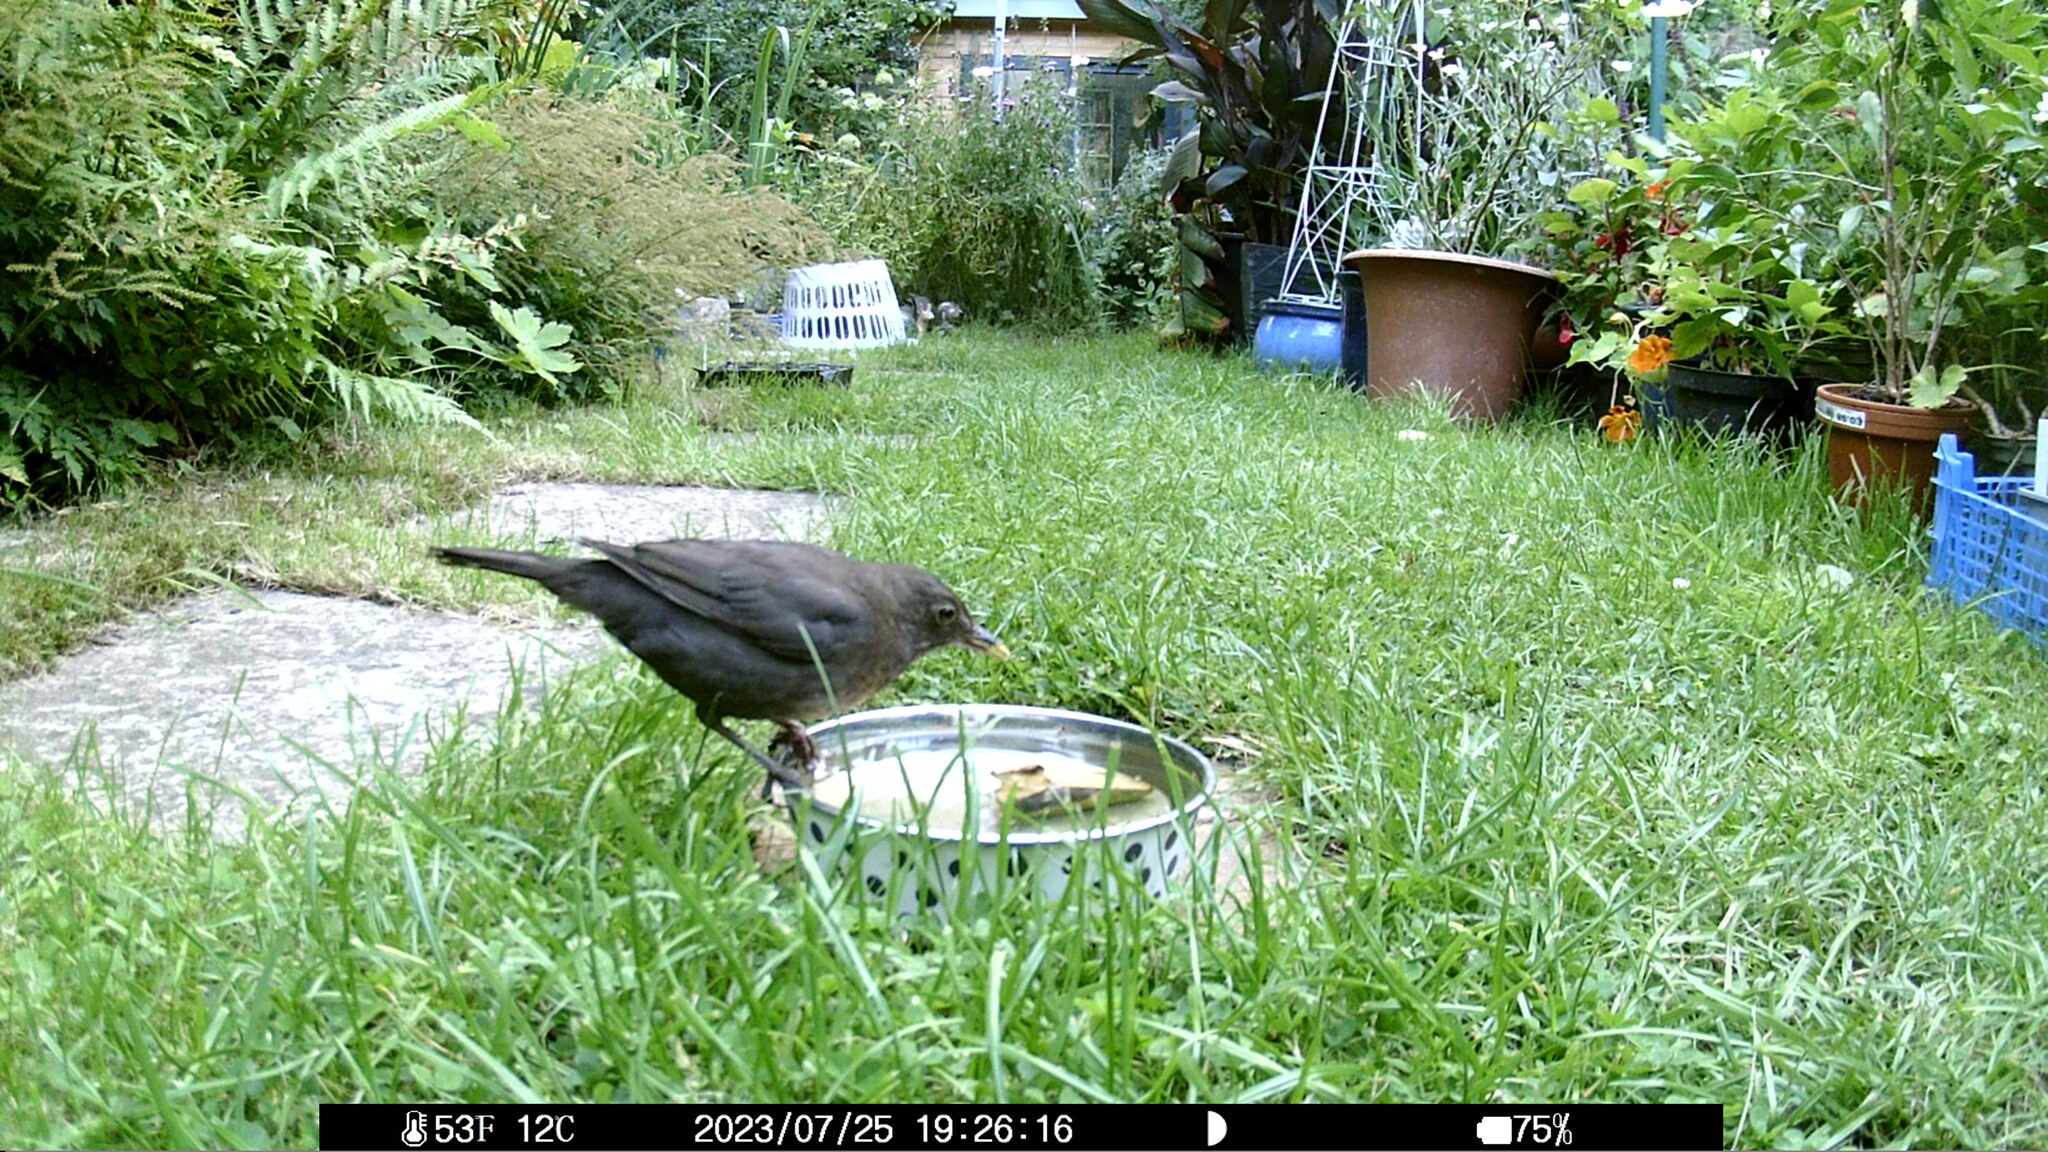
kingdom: Animalia
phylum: Chordata
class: Aves
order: Passeriformes
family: Turdidae
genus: Turdus
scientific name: Turdus merula
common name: Common blackbird
